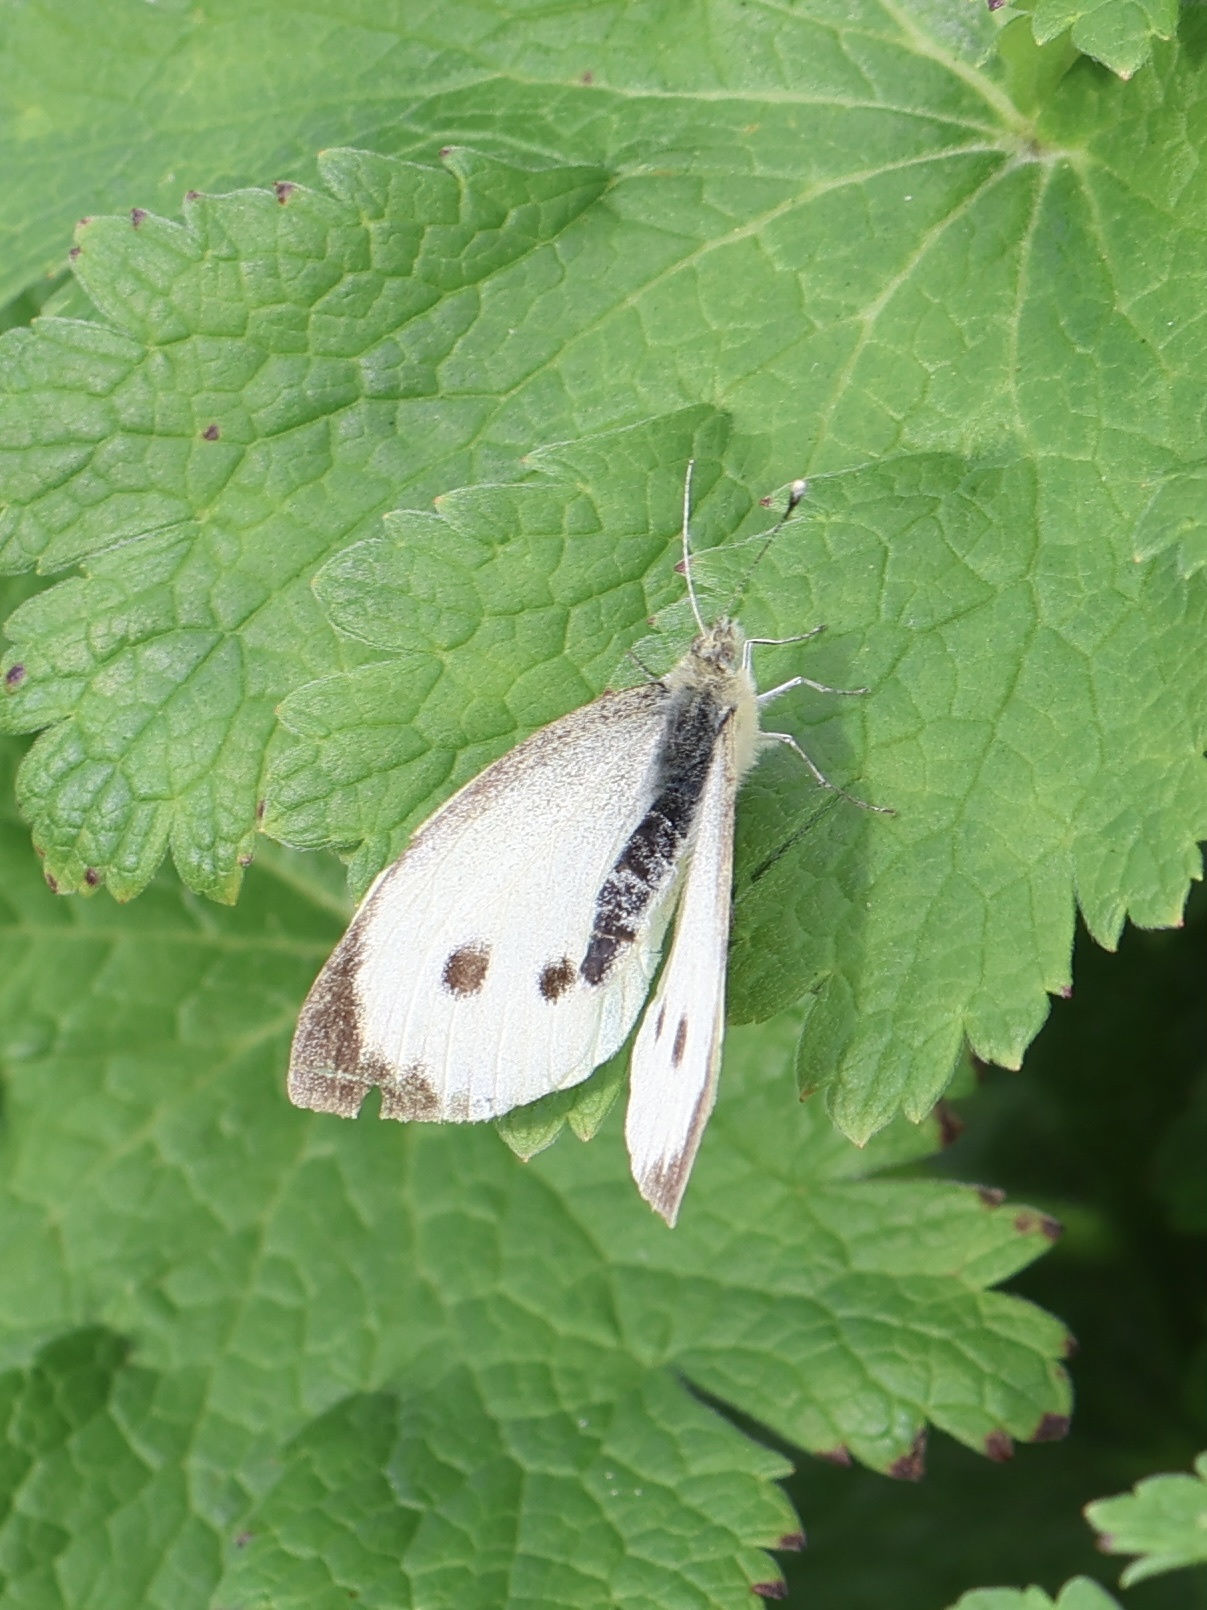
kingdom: Animalia
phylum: Arthropoda
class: Insecta
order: Lepidoptera
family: Pieridae
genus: Pieris
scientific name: Pieris brassicae
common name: Large white
